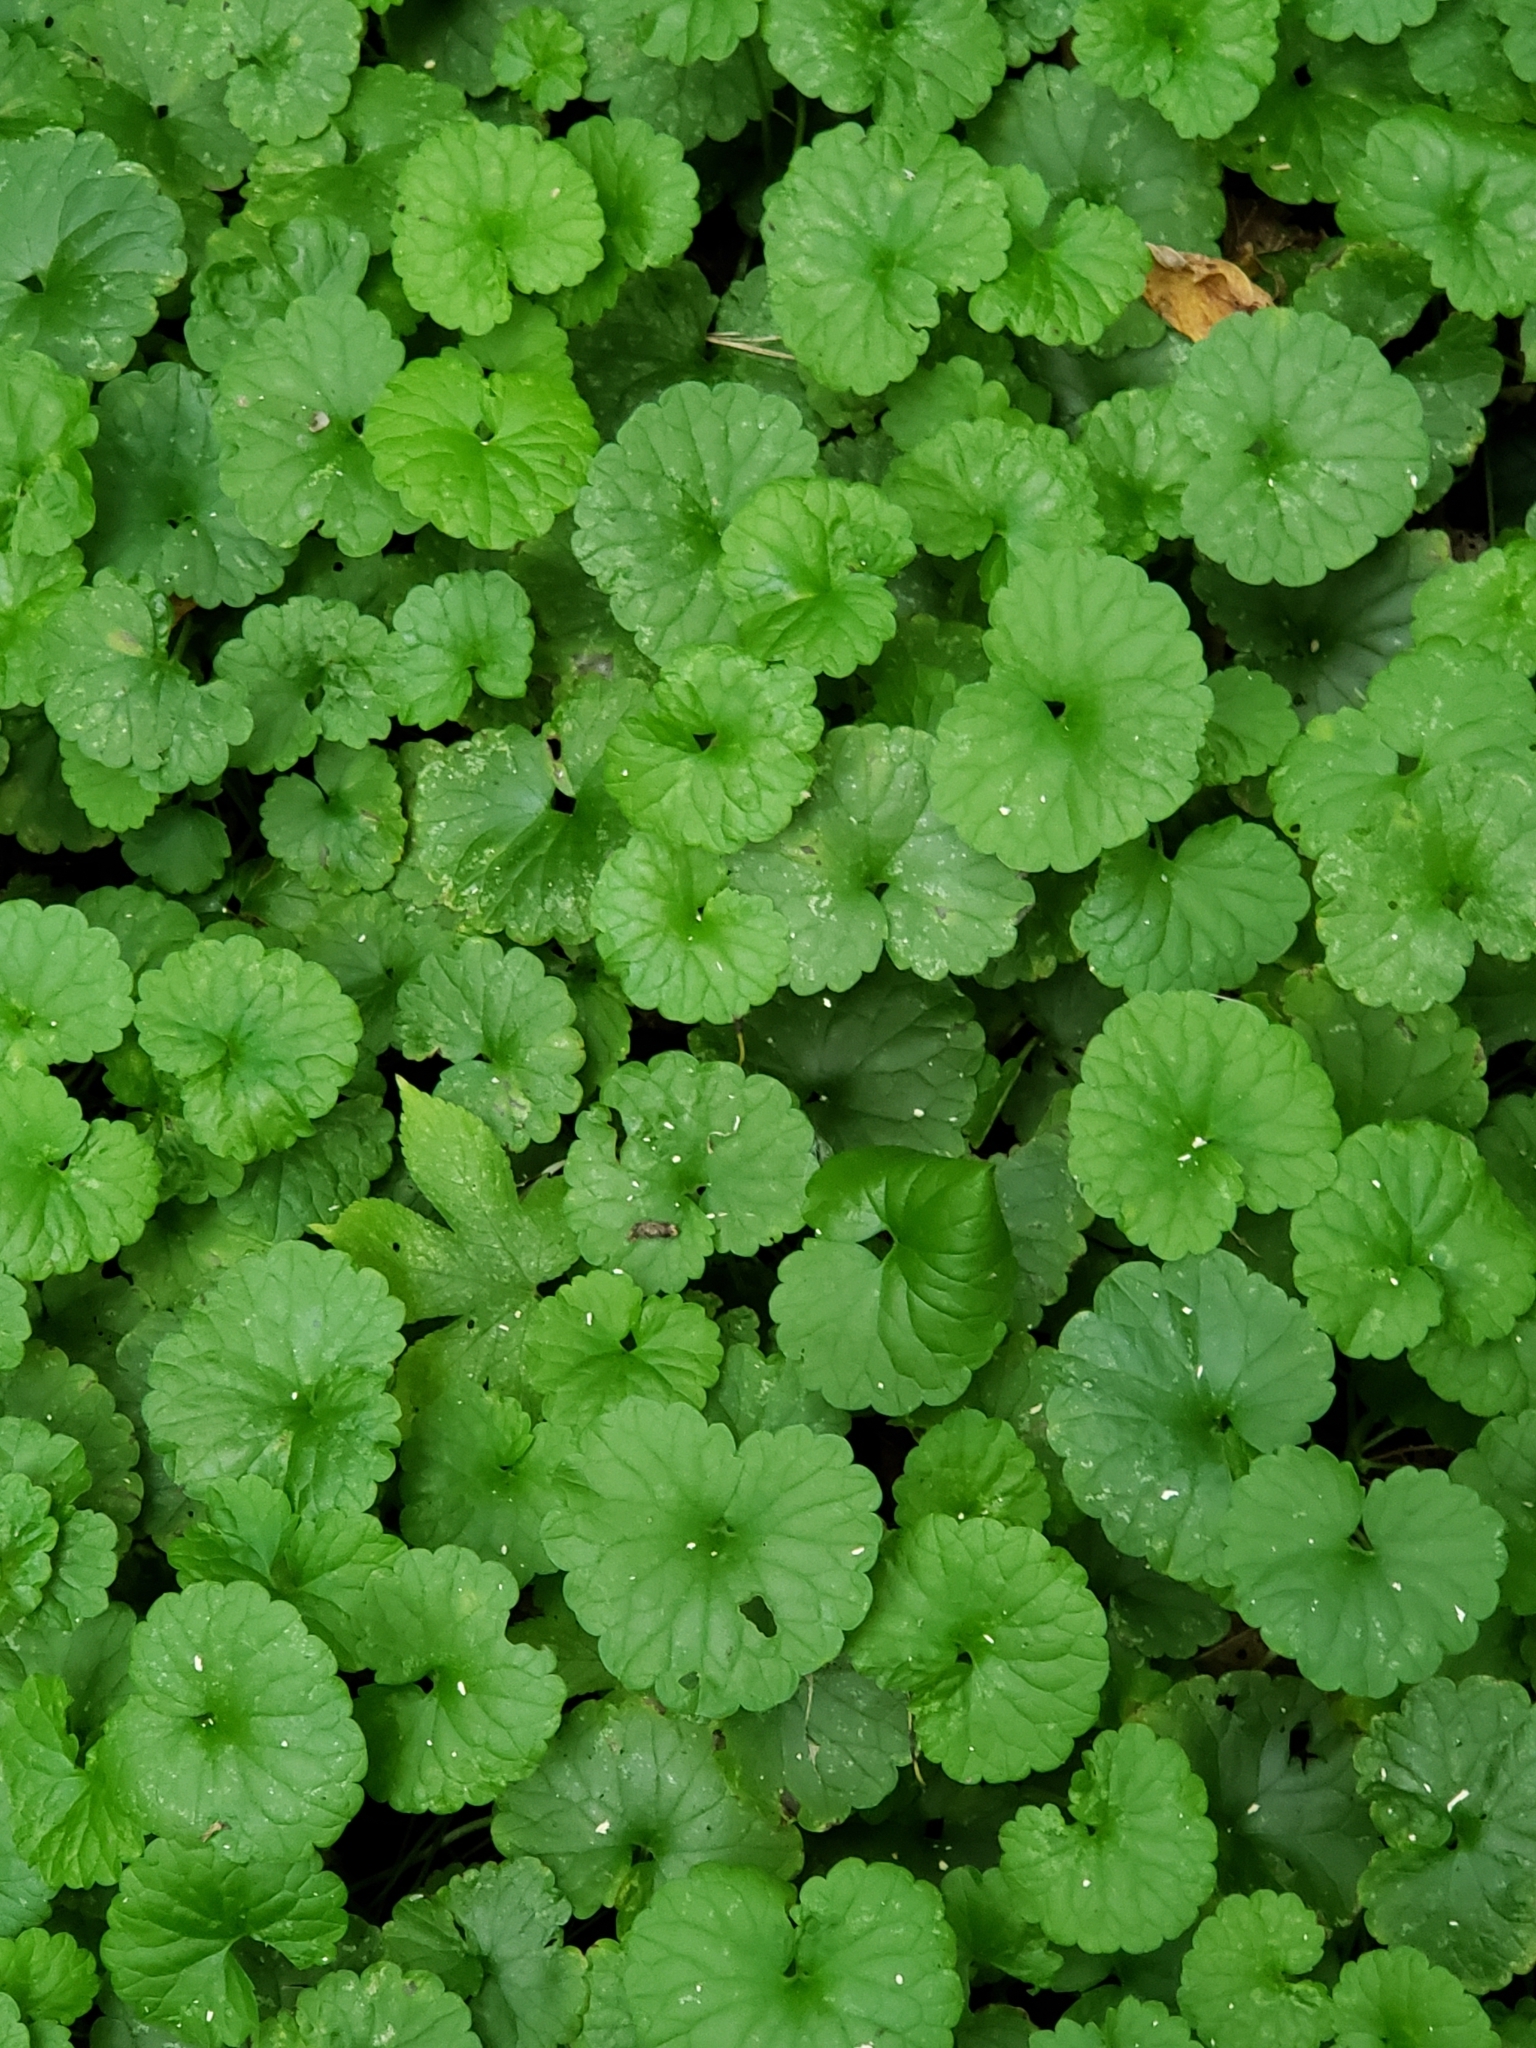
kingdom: Plantae
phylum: Tracheophyta
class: Magnoliopsida
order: Lamiales
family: Lamiaceae
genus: Glechoma
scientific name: Glechoma hederacea
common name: Ground ivy
